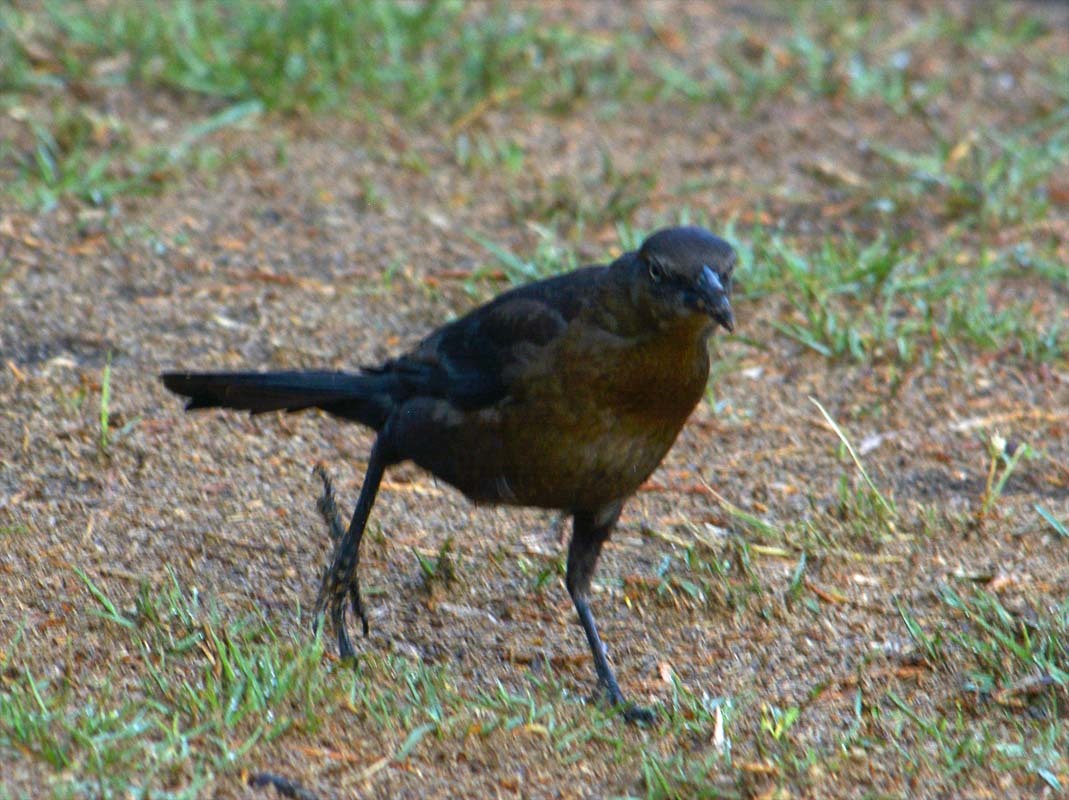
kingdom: Animalia
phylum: Chordata
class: Aves
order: Passeriformes
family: Icteridae
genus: Quiscalus
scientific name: Quiscalus mexicanus
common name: Great-tailed grackle
